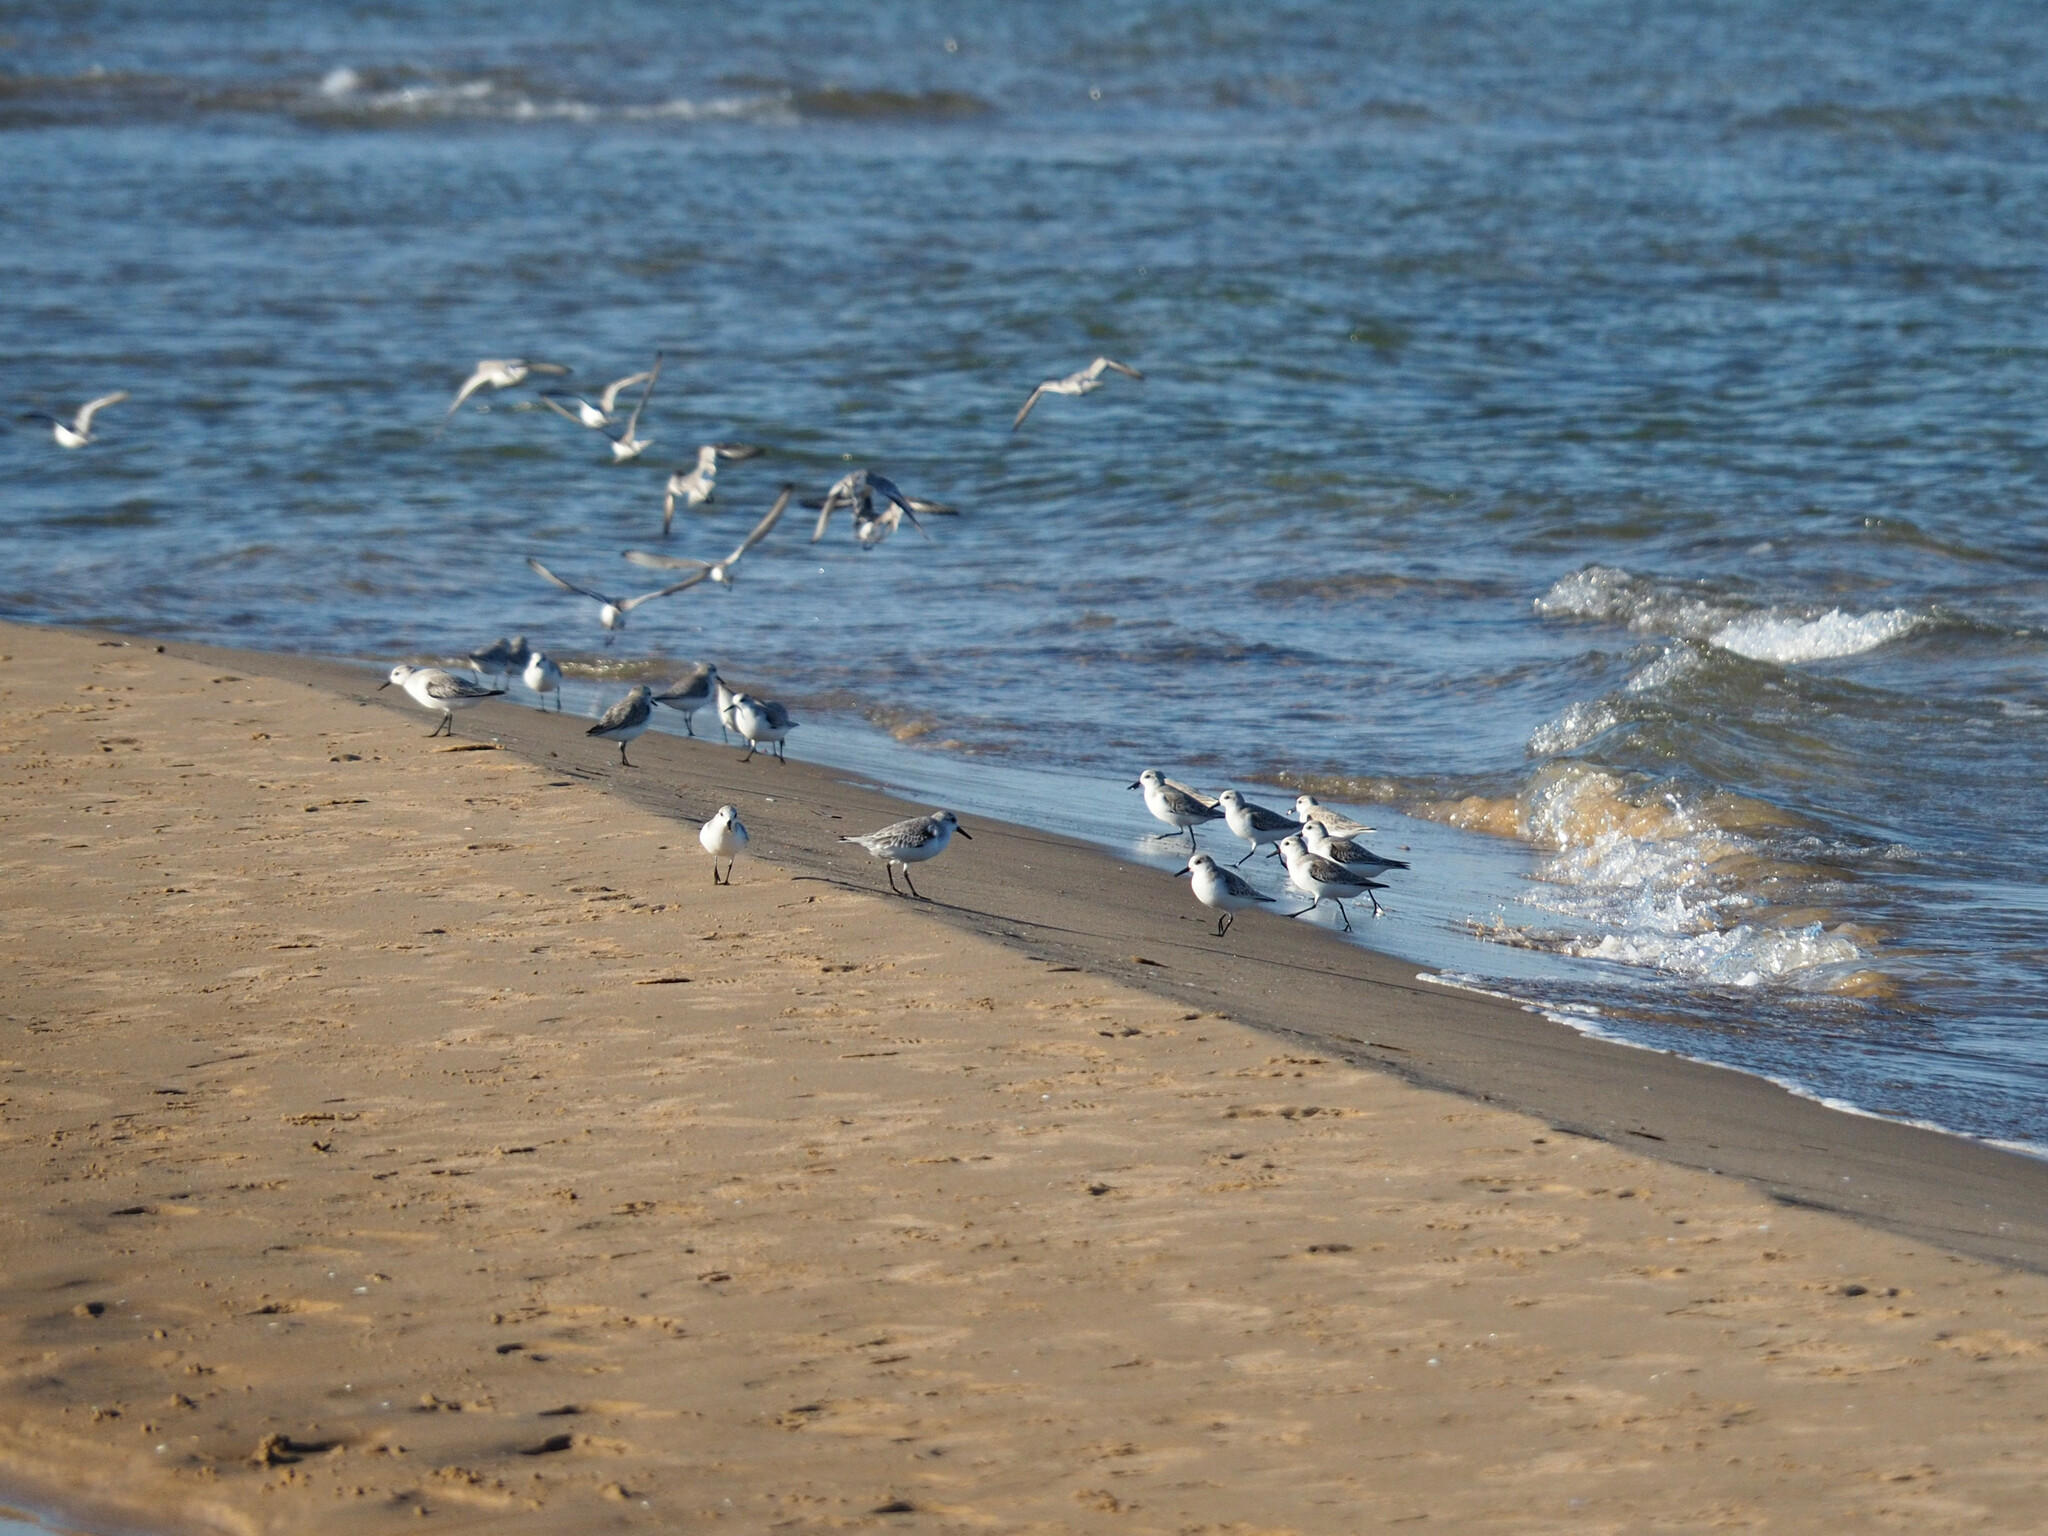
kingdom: Animalia
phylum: Chordata
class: Aves
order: Charadriiformes
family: Scolopacidae
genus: Calidris
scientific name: Calidris alba
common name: Sanderling
